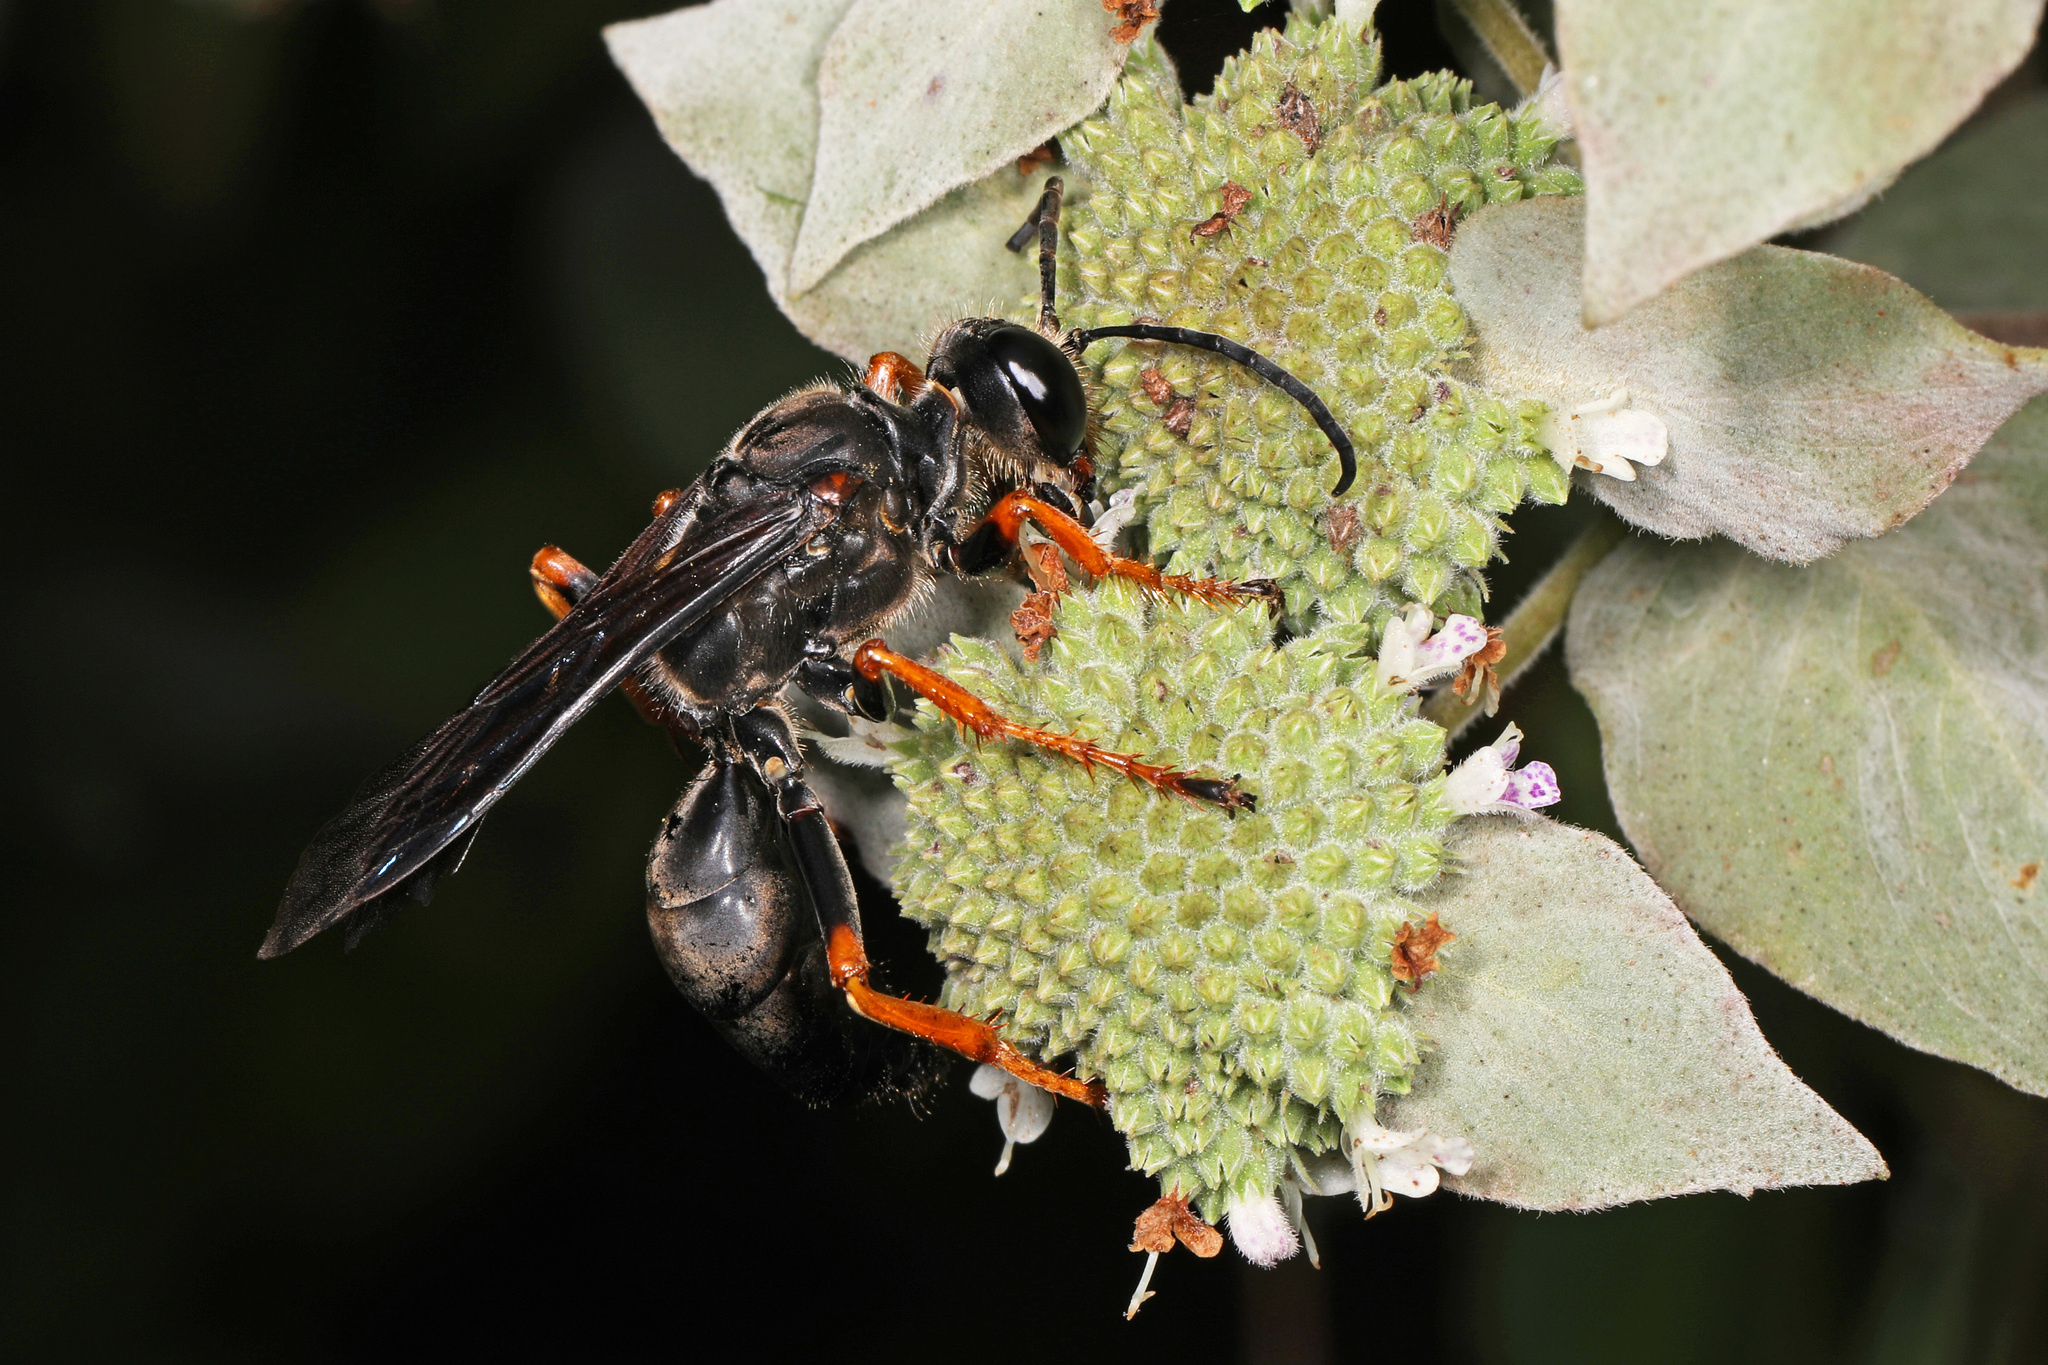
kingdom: Animalia
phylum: Arthropoda
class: Insecta
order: Hymenoptera
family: Sphecidae
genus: Sphex
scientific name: Sphex nudus
